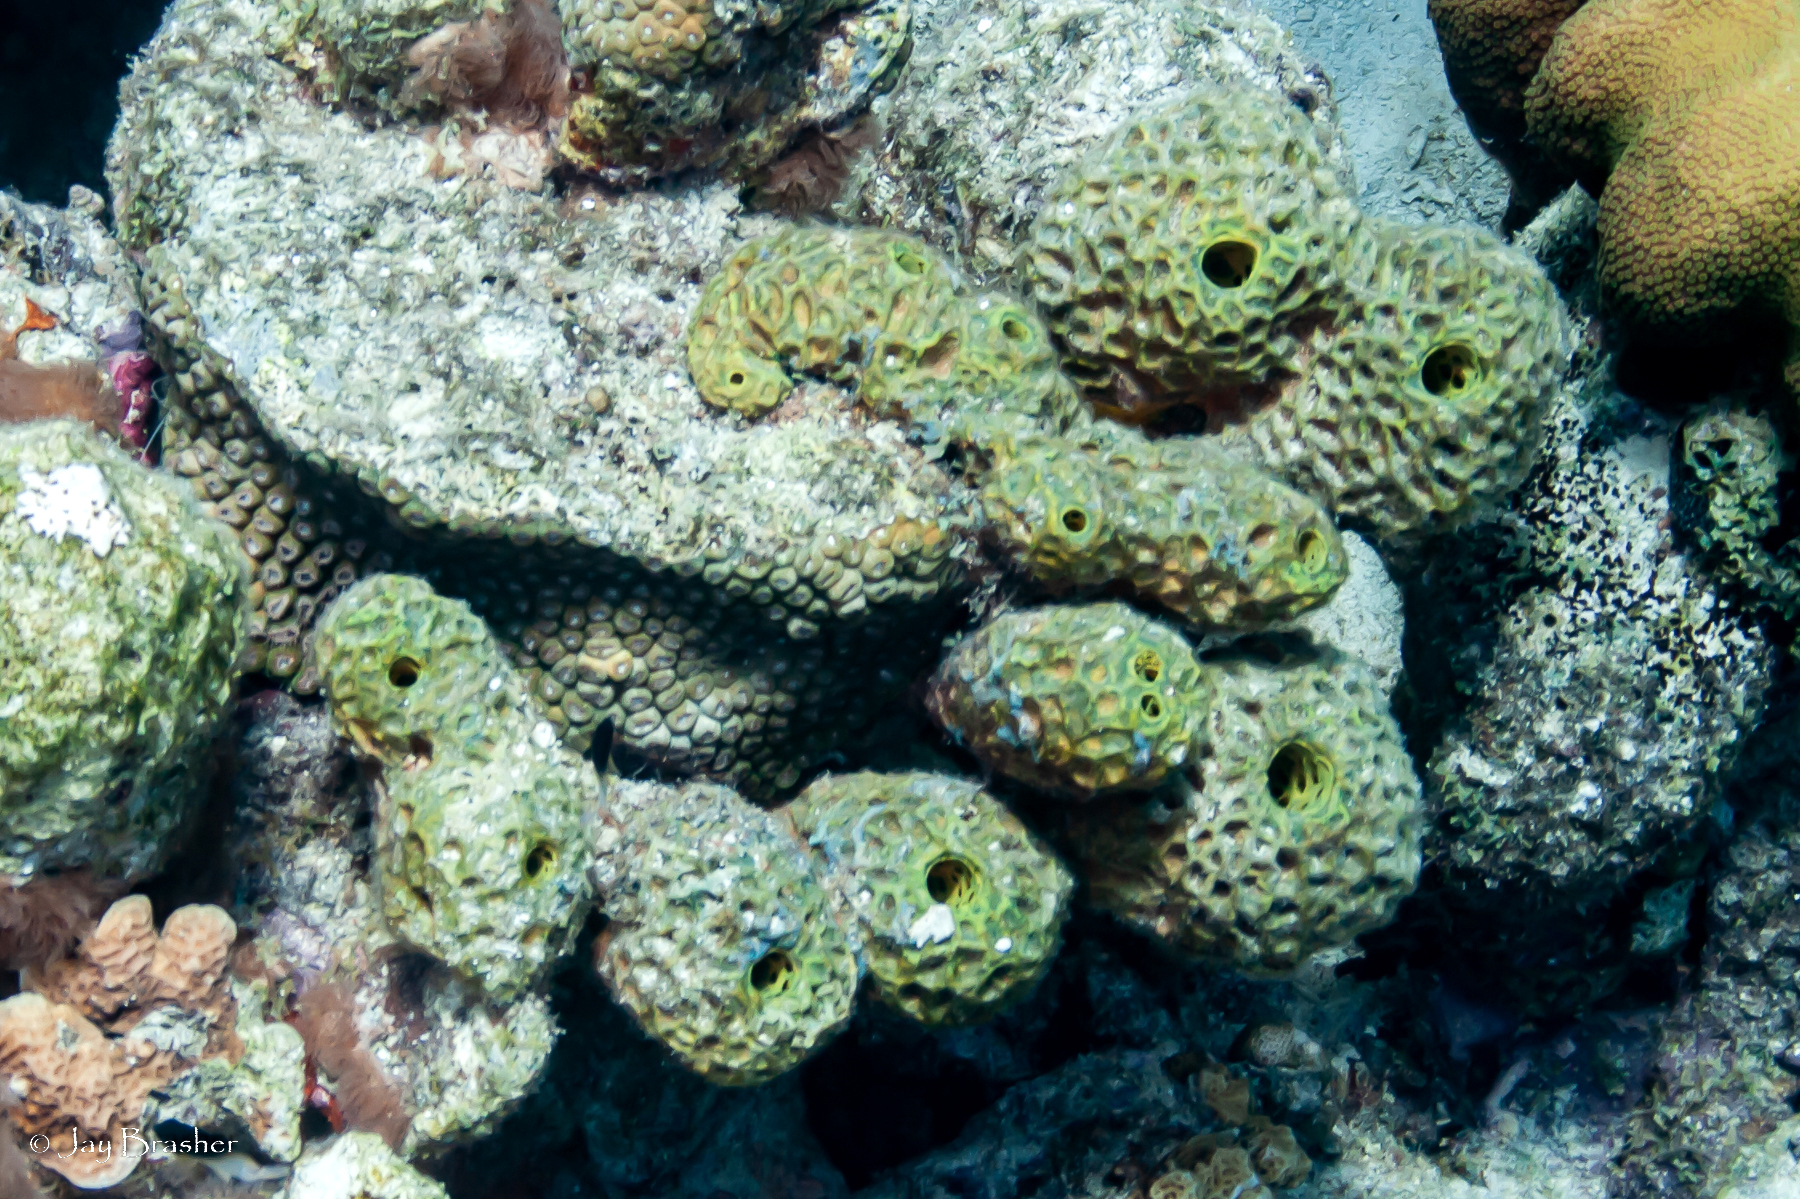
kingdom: Animalia
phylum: Porifera
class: Demospongiae
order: Verongiida
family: Aplysinidae
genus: Verongula
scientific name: Verongula rigida
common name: Pitted sponge
